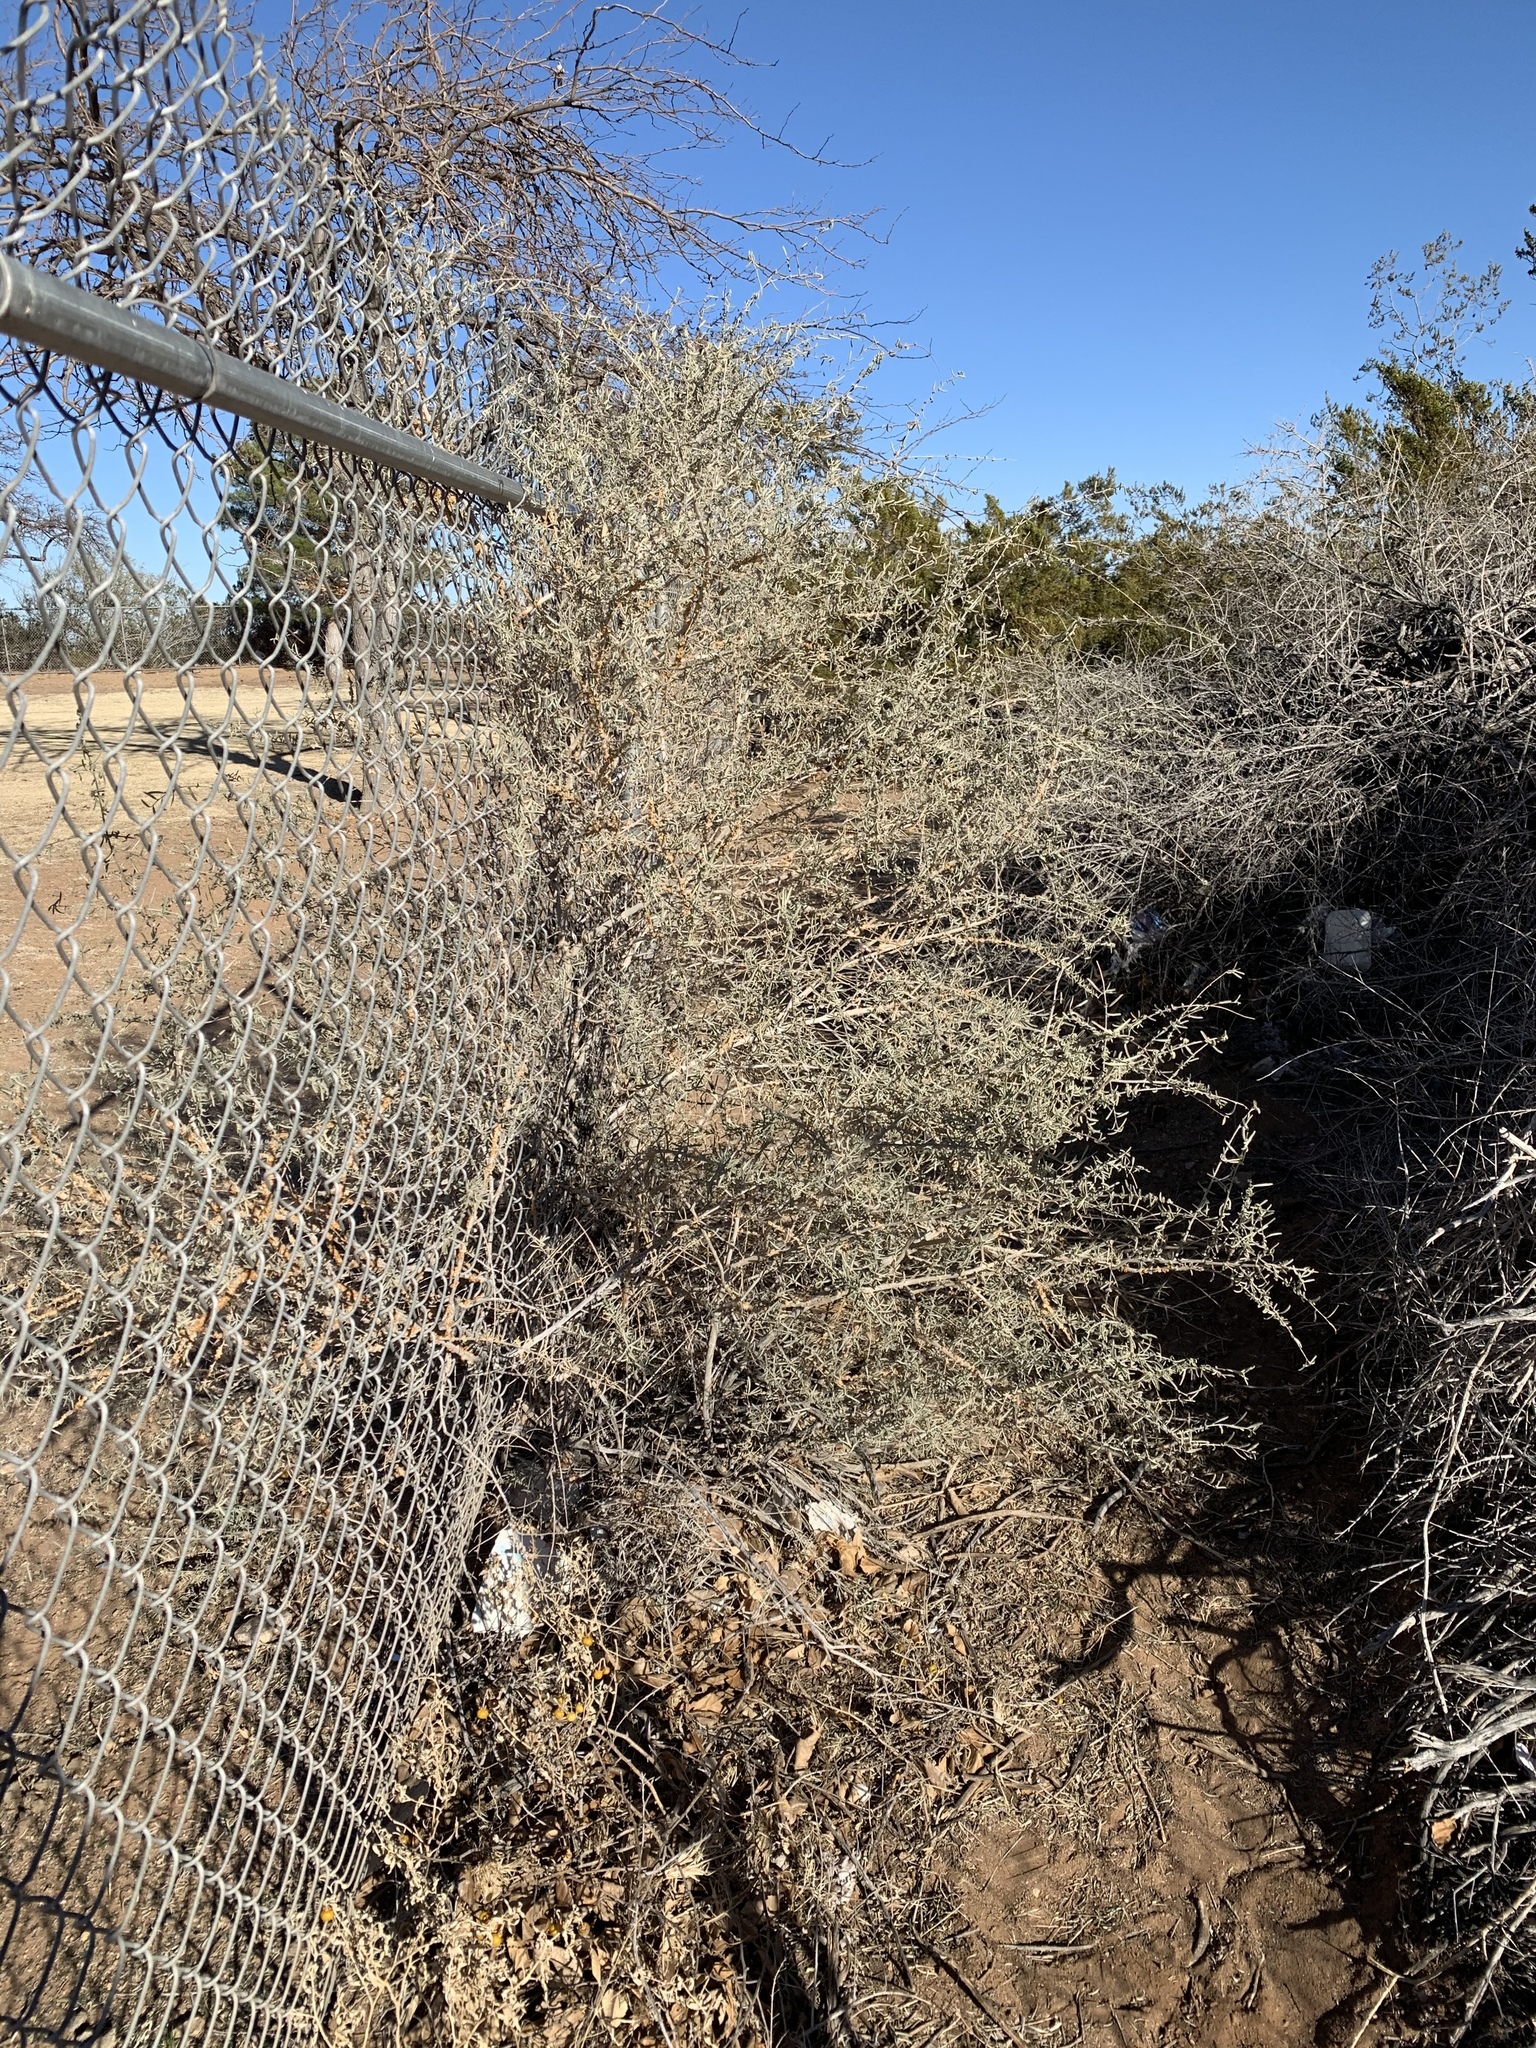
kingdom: Plantae
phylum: Tracheophyta
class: Magnoliopsida
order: Caryophyllales
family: Amaranthaceae
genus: Atriplex
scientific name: Atriplex polycarpa
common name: Desert saltbush
